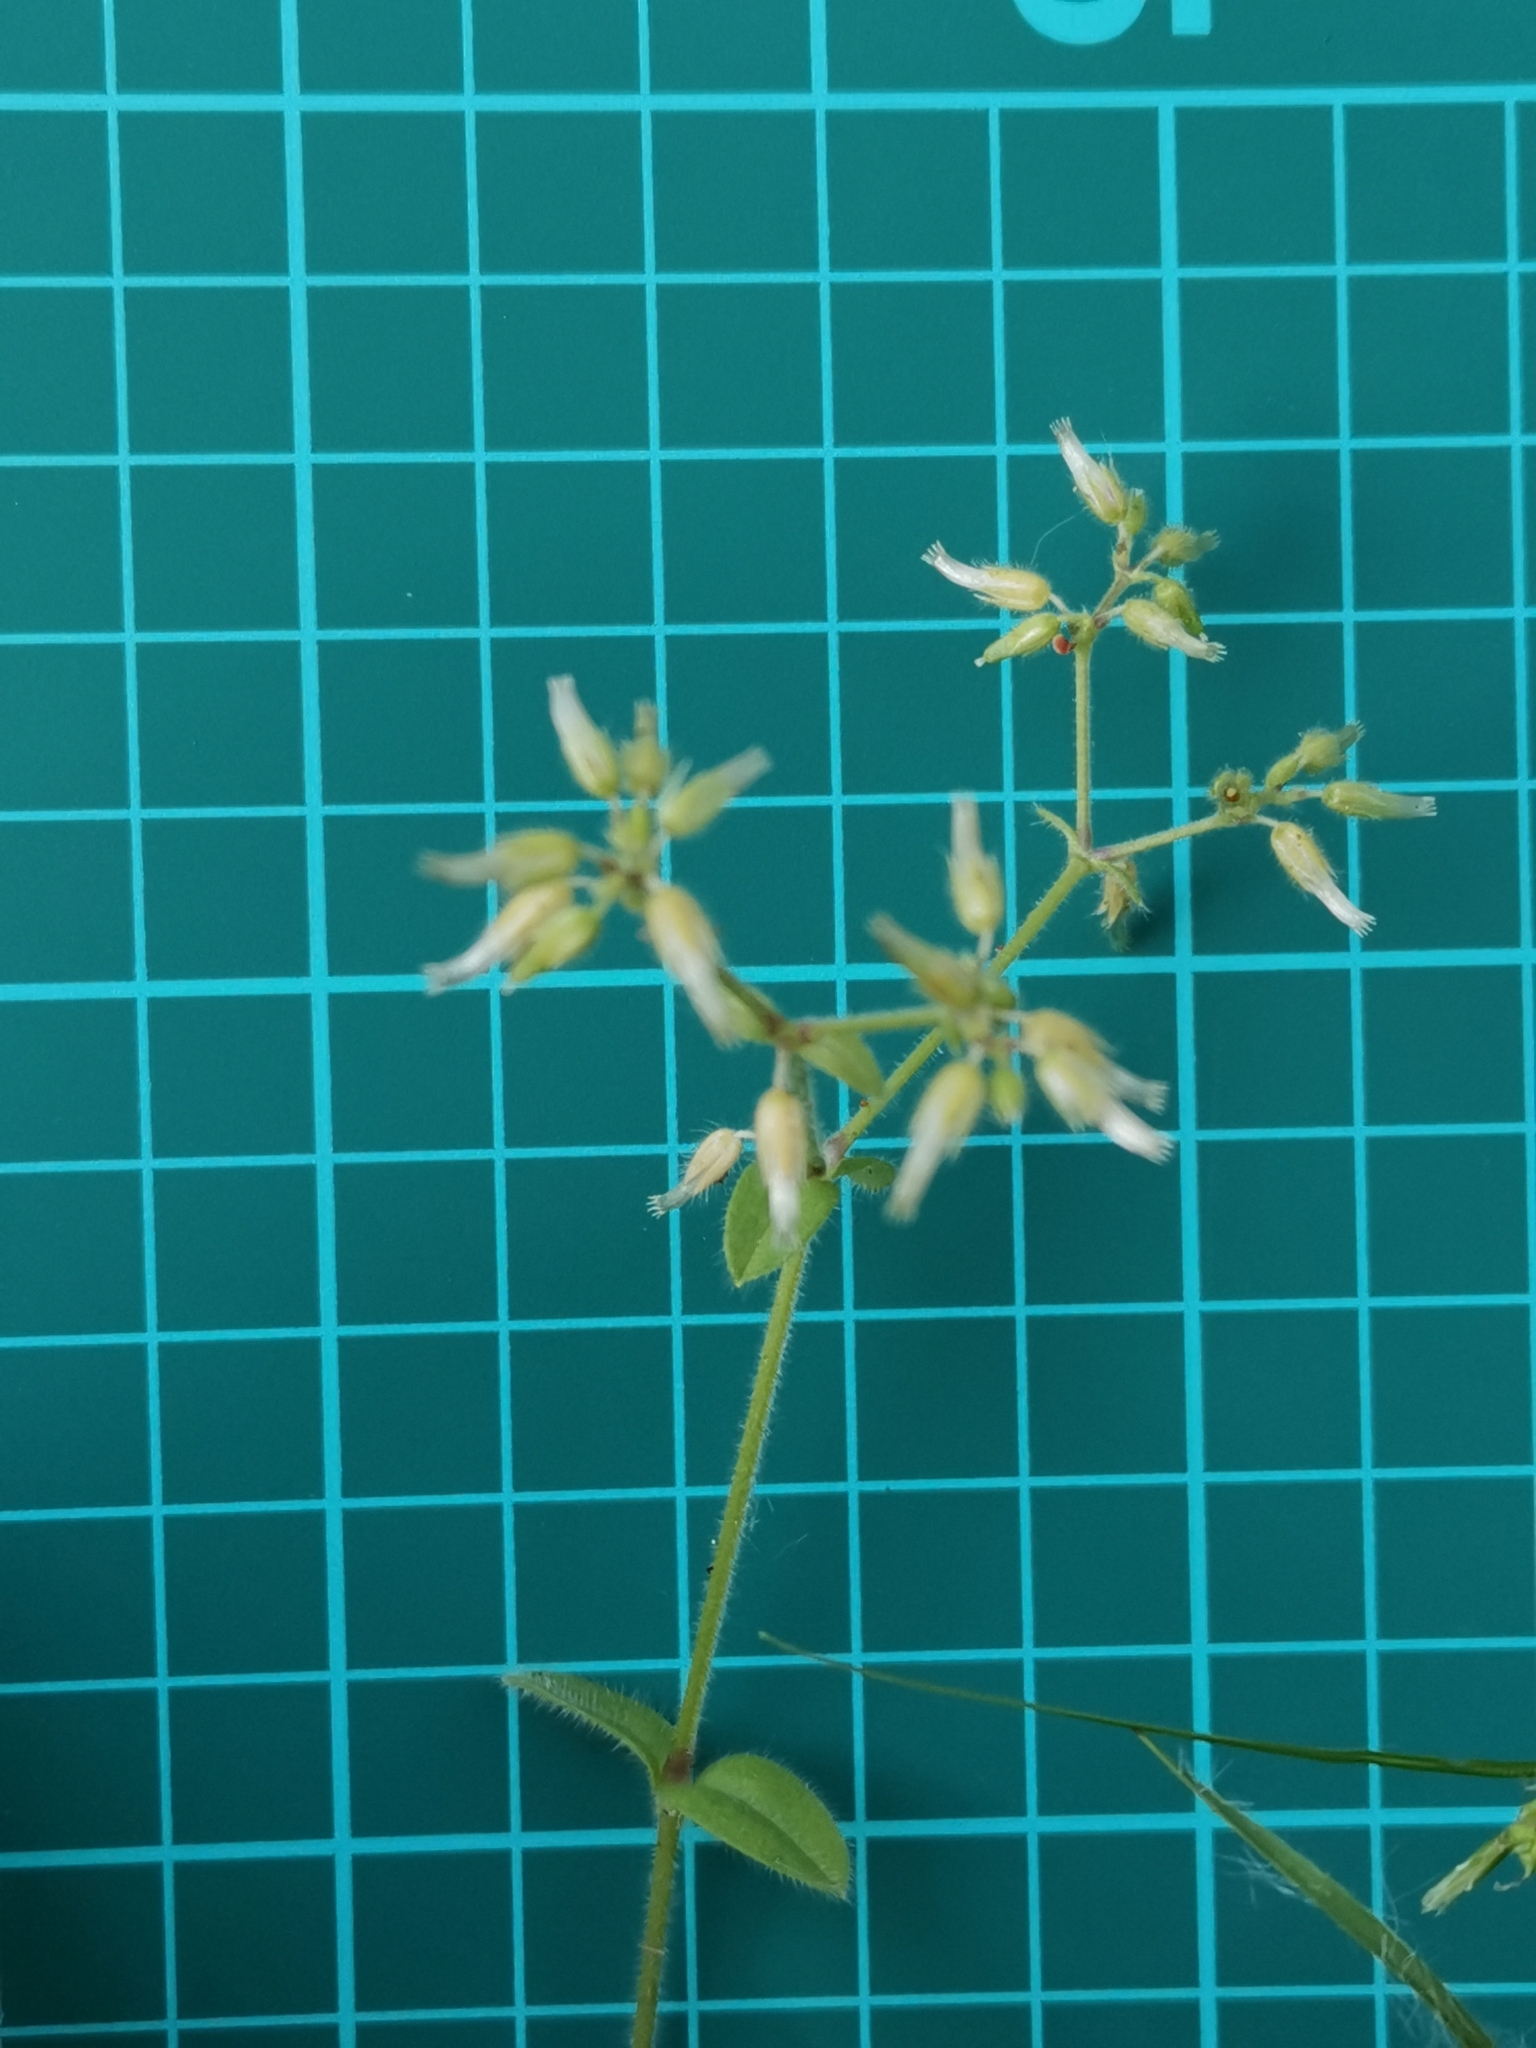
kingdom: Plantae
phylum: Tracheophyta
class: Magnoliopsida
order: Caryophyllales
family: Caryophyllaceae
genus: Cerastium
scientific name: Cerastium glomeratum
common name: Sticky chickweed
